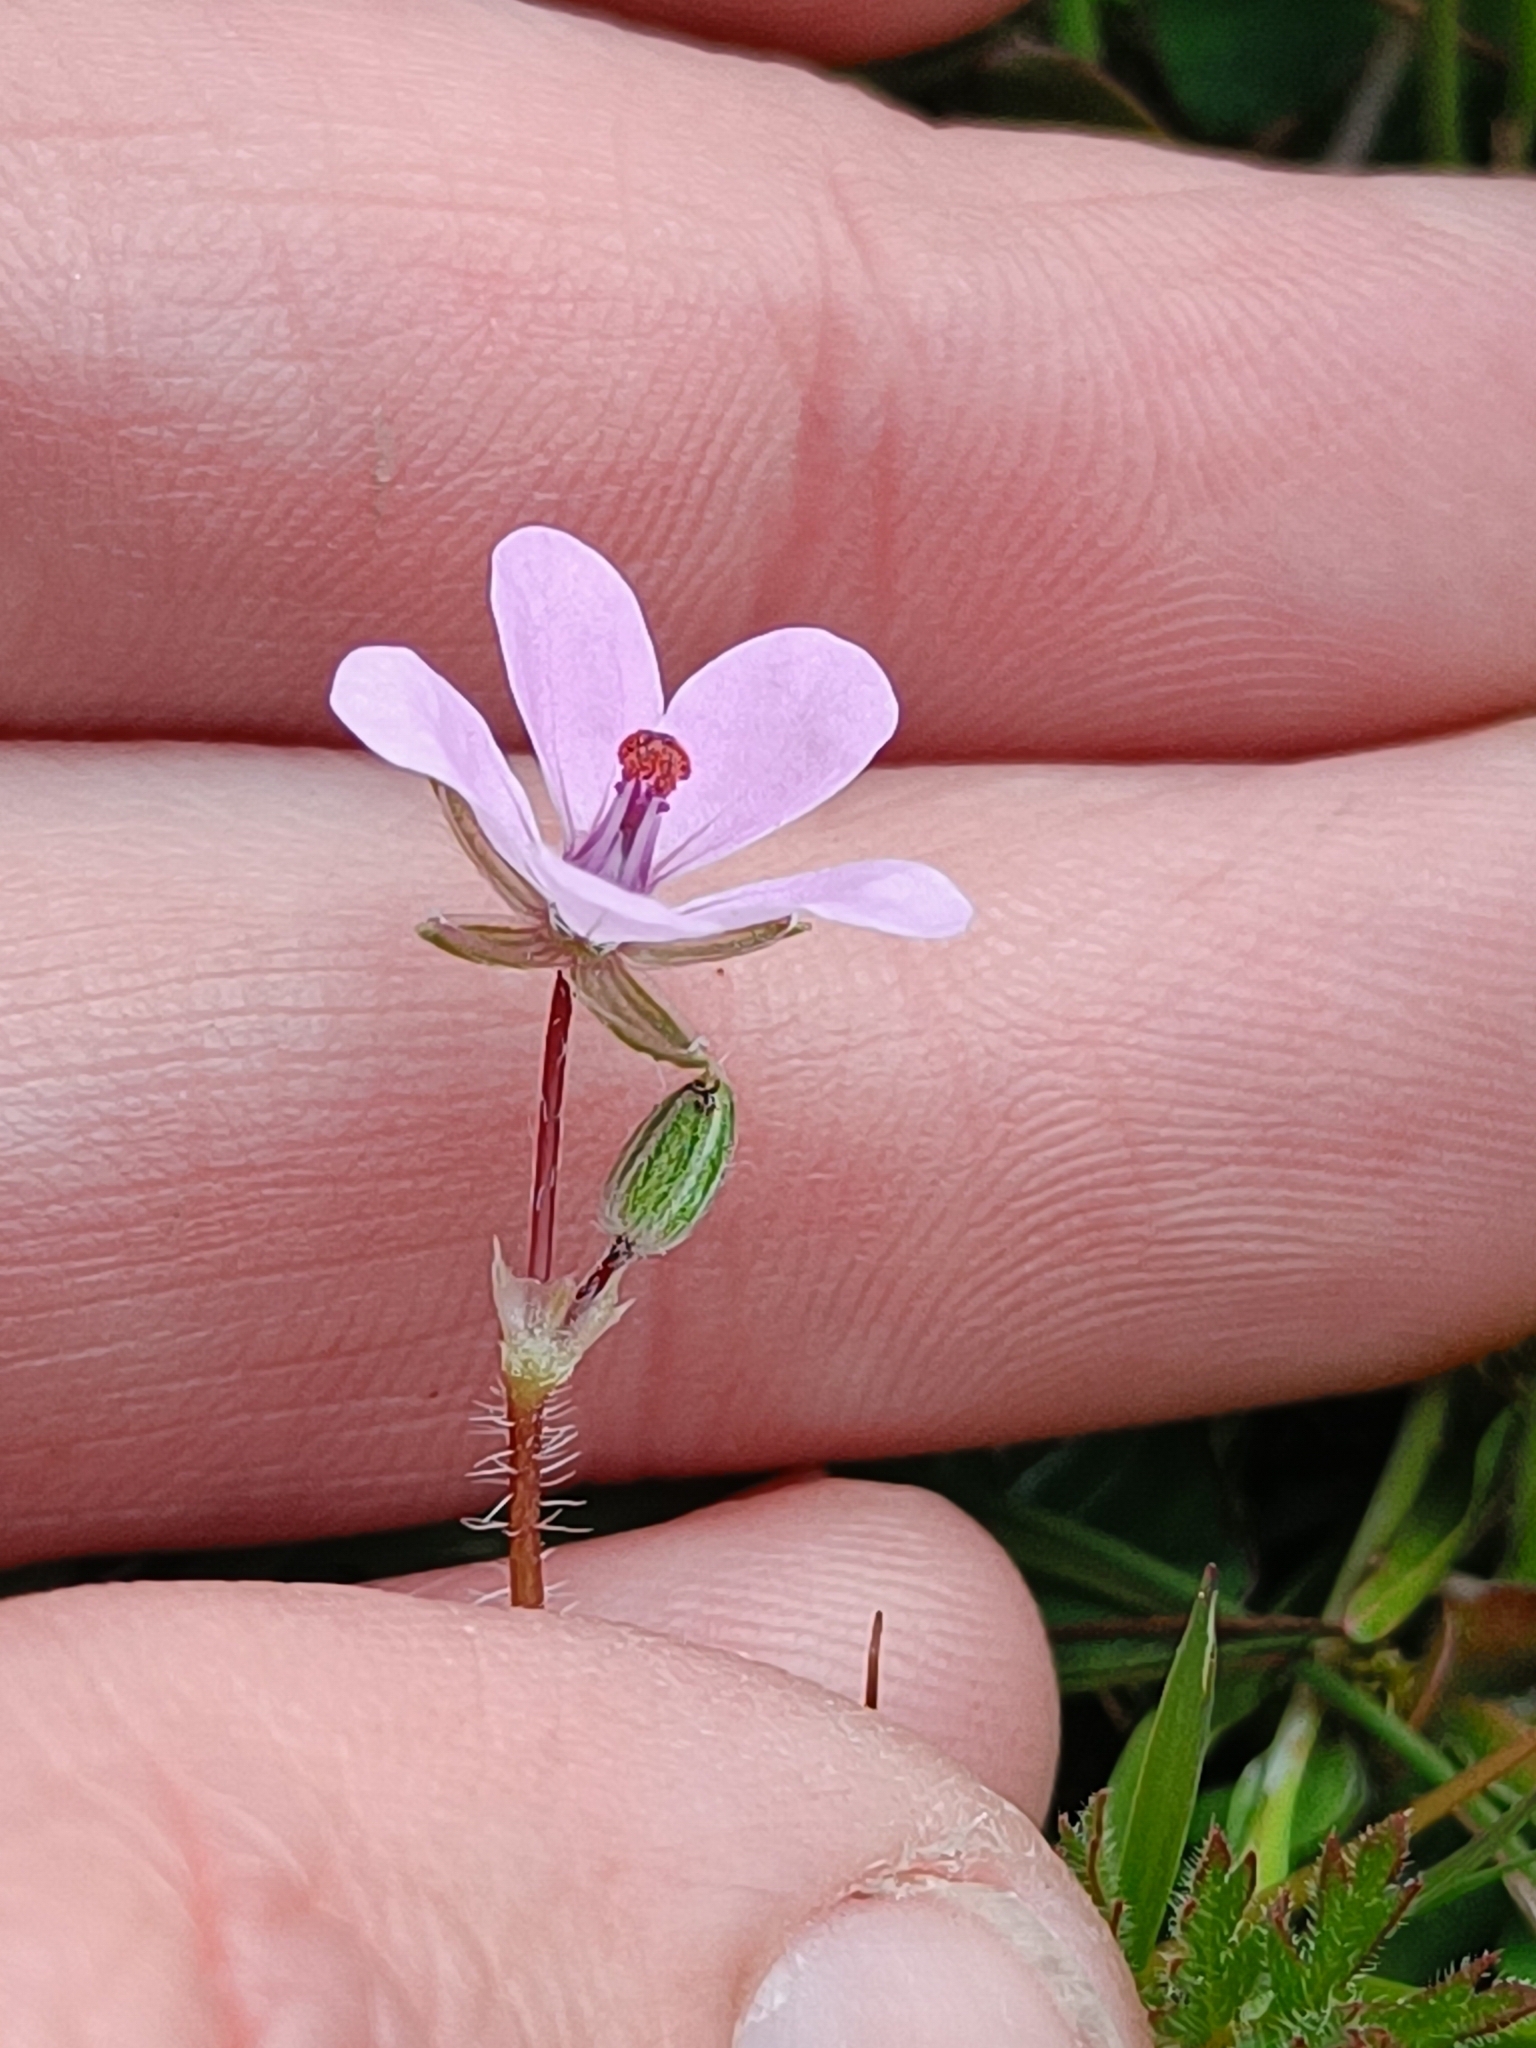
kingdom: Plantae
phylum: Tracheophyta
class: Magnoliopsida
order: Geraniales
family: Geraniaceae
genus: Erodium
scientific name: Erodium cicutarium
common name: Common stork's-bill
